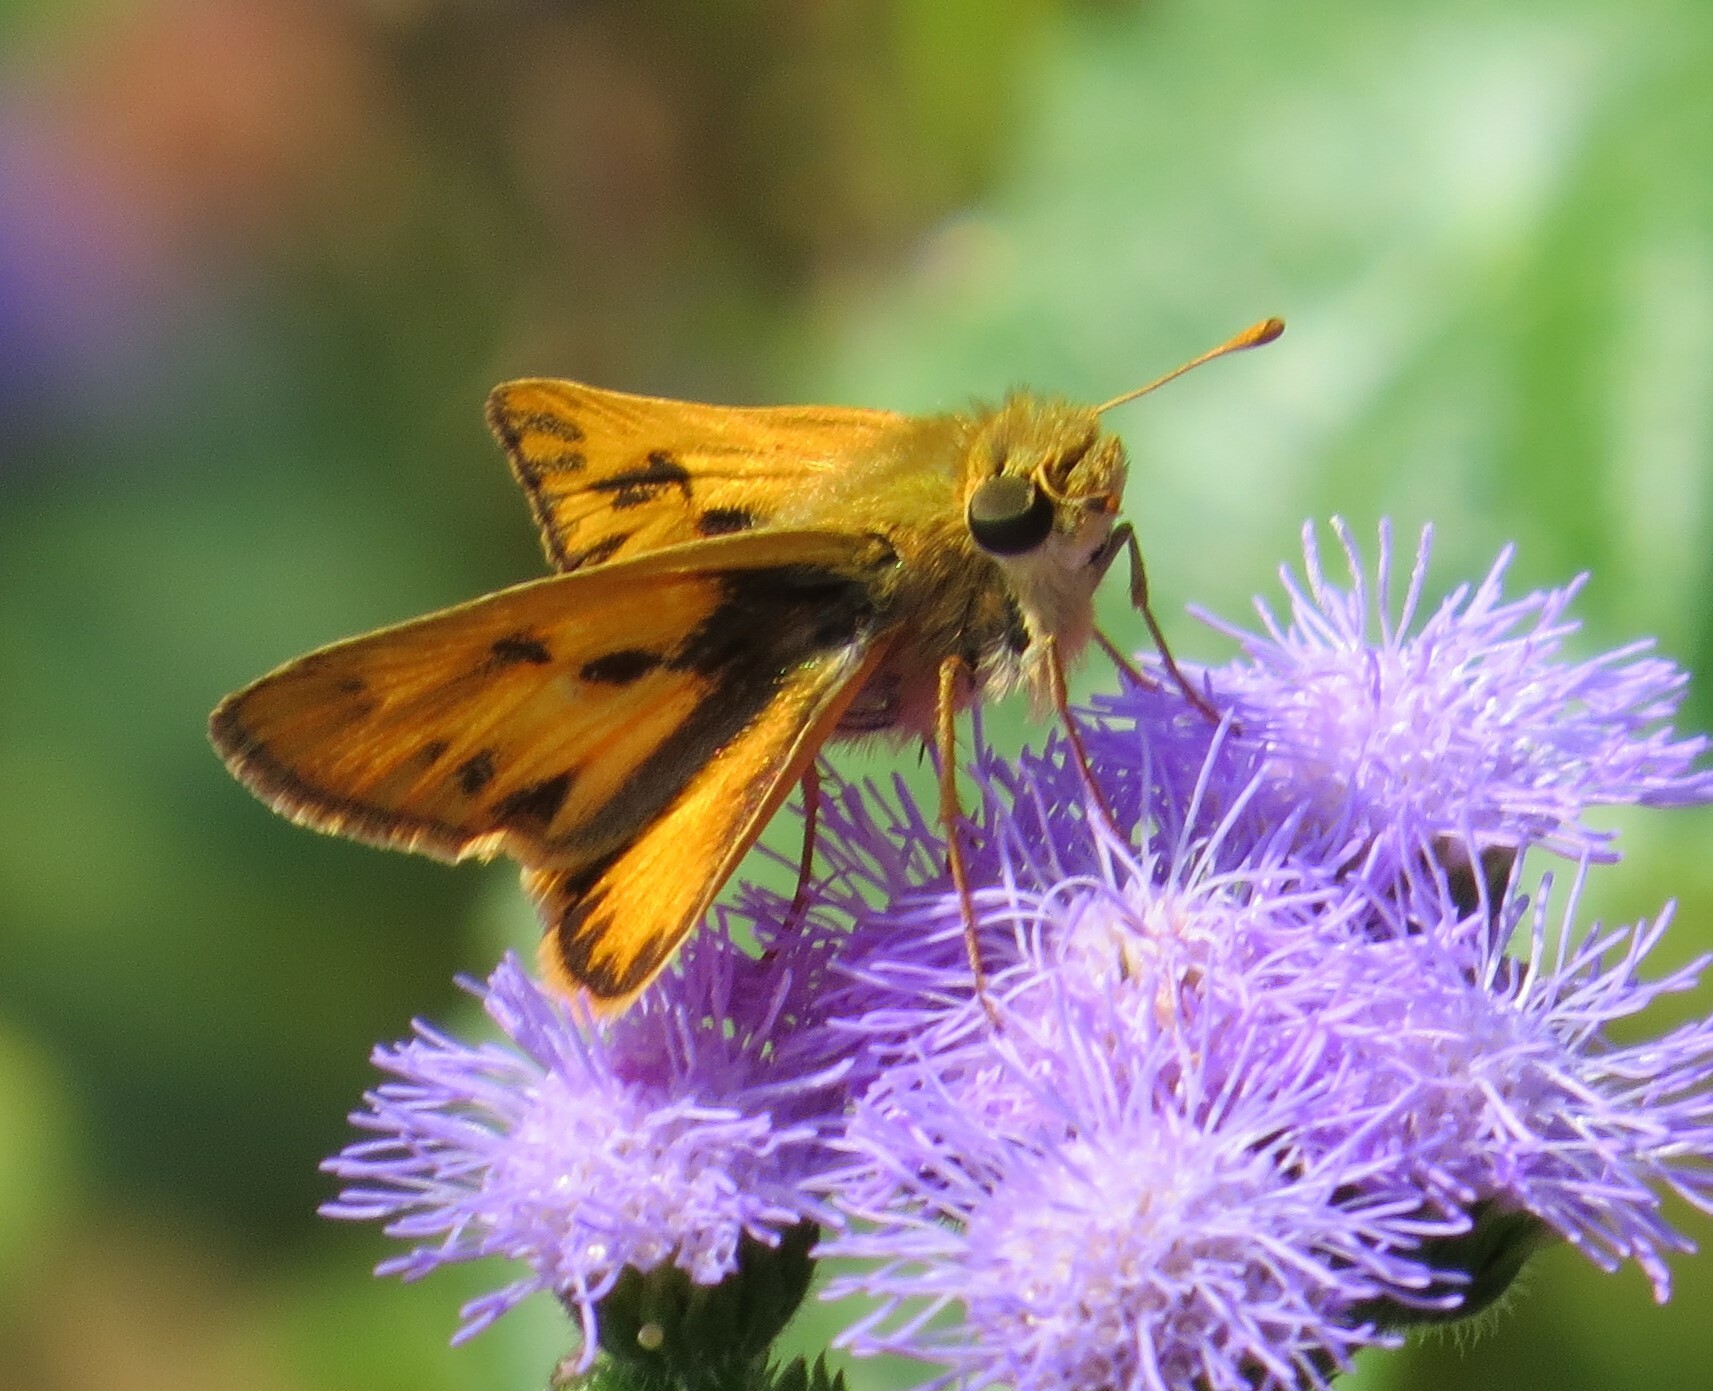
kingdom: Animalia
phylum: Arthropoda
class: Insecta
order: Lepidoptera
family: Hesperiidae
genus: Hylephila
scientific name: Hylephila phyleus
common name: Fiery skipper
